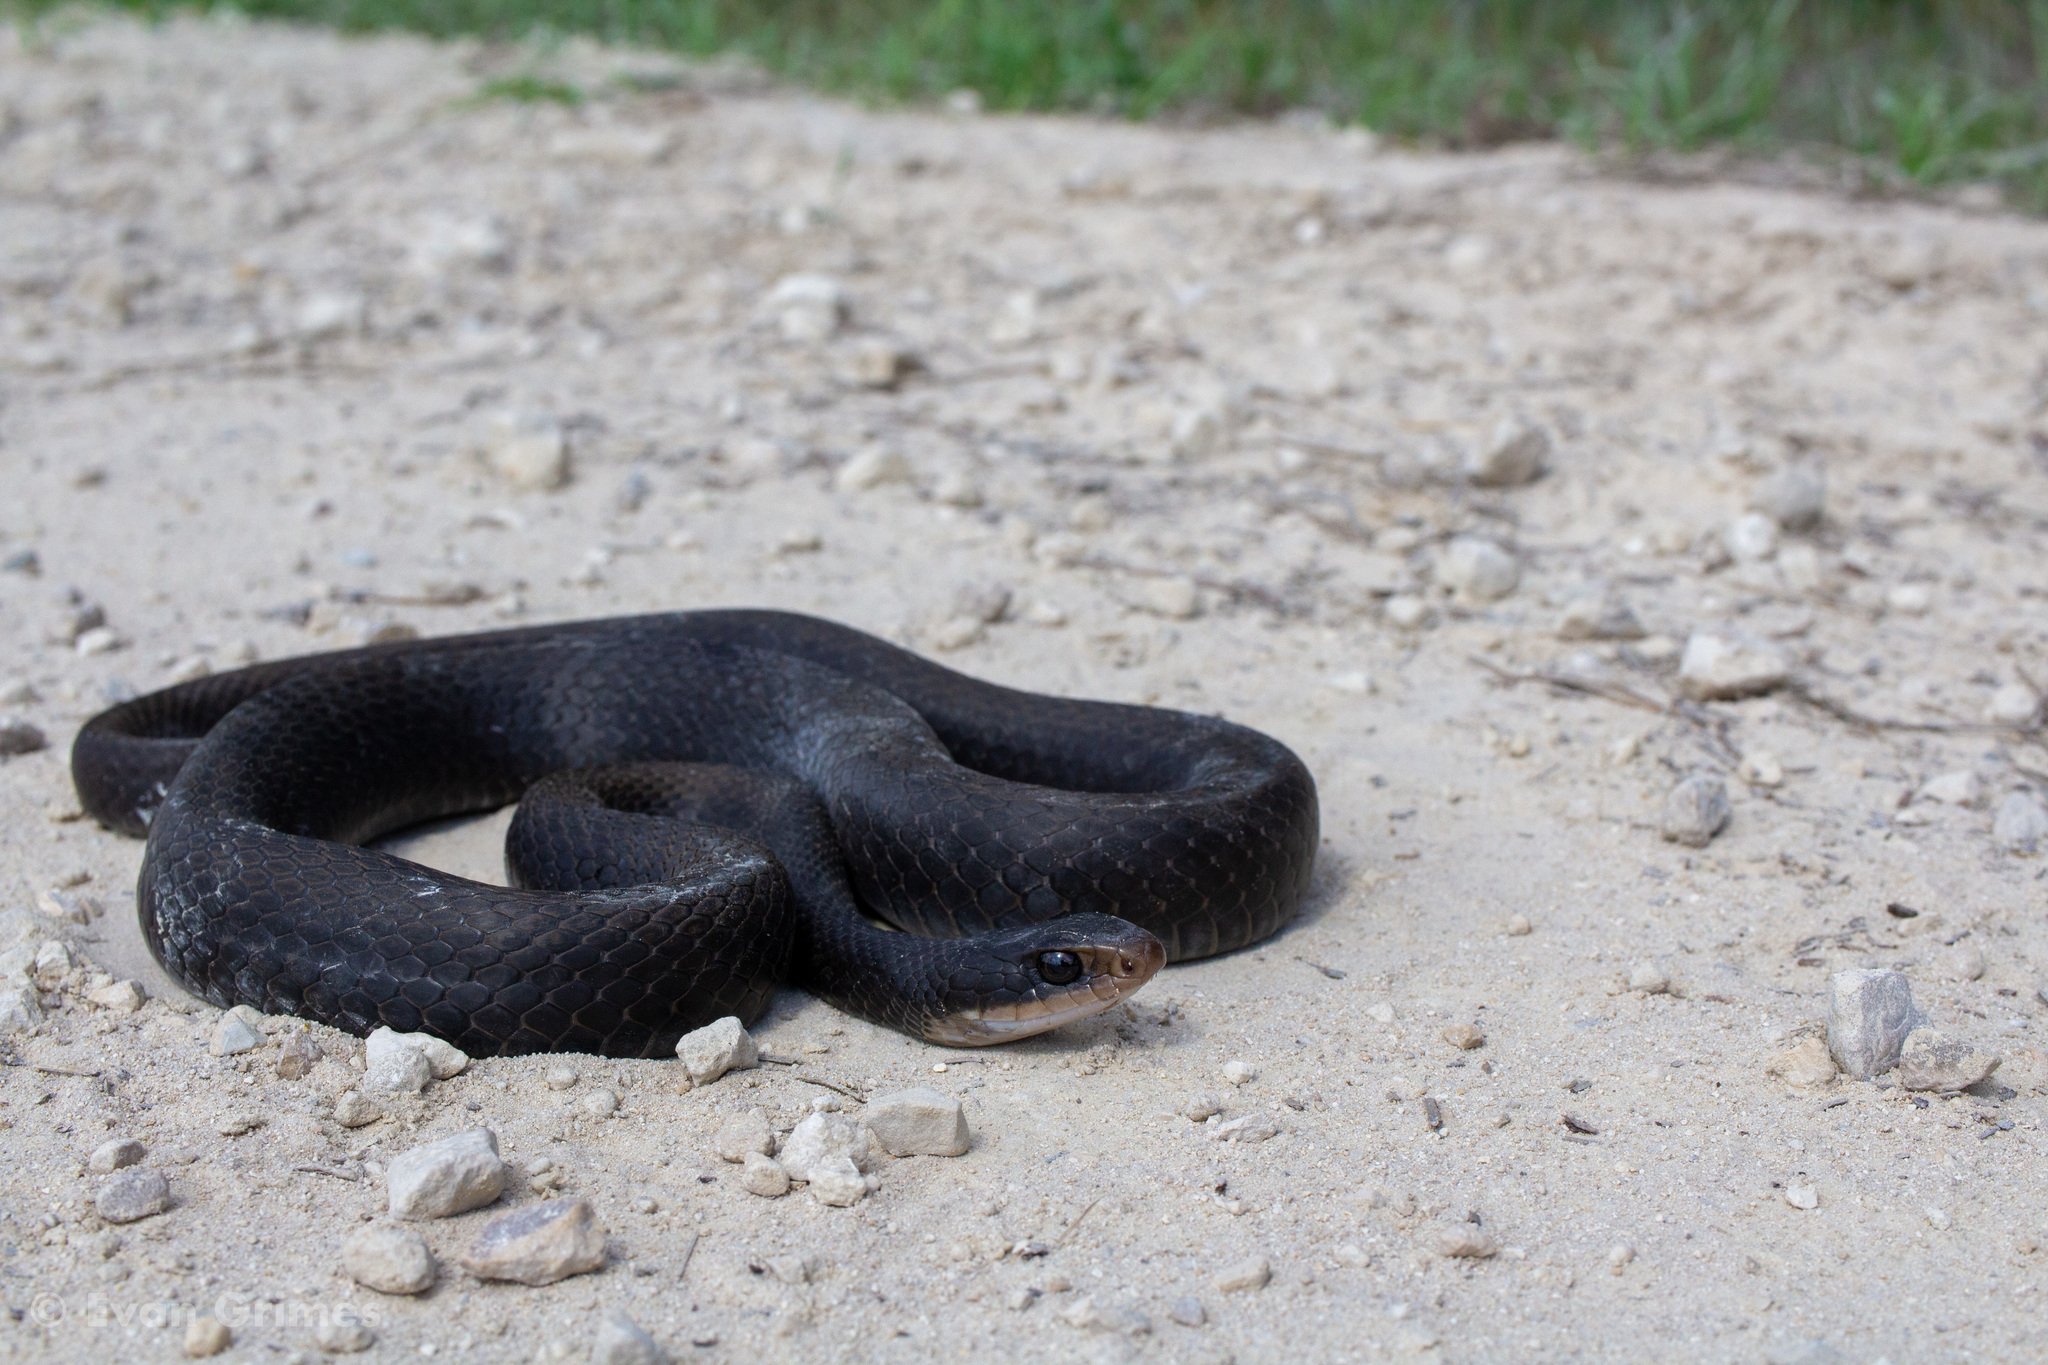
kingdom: Animalia
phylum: Chordata
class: Squamata
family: Colubridae
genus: Coluber
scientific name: Coluber constrictor
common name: Eastern racer
